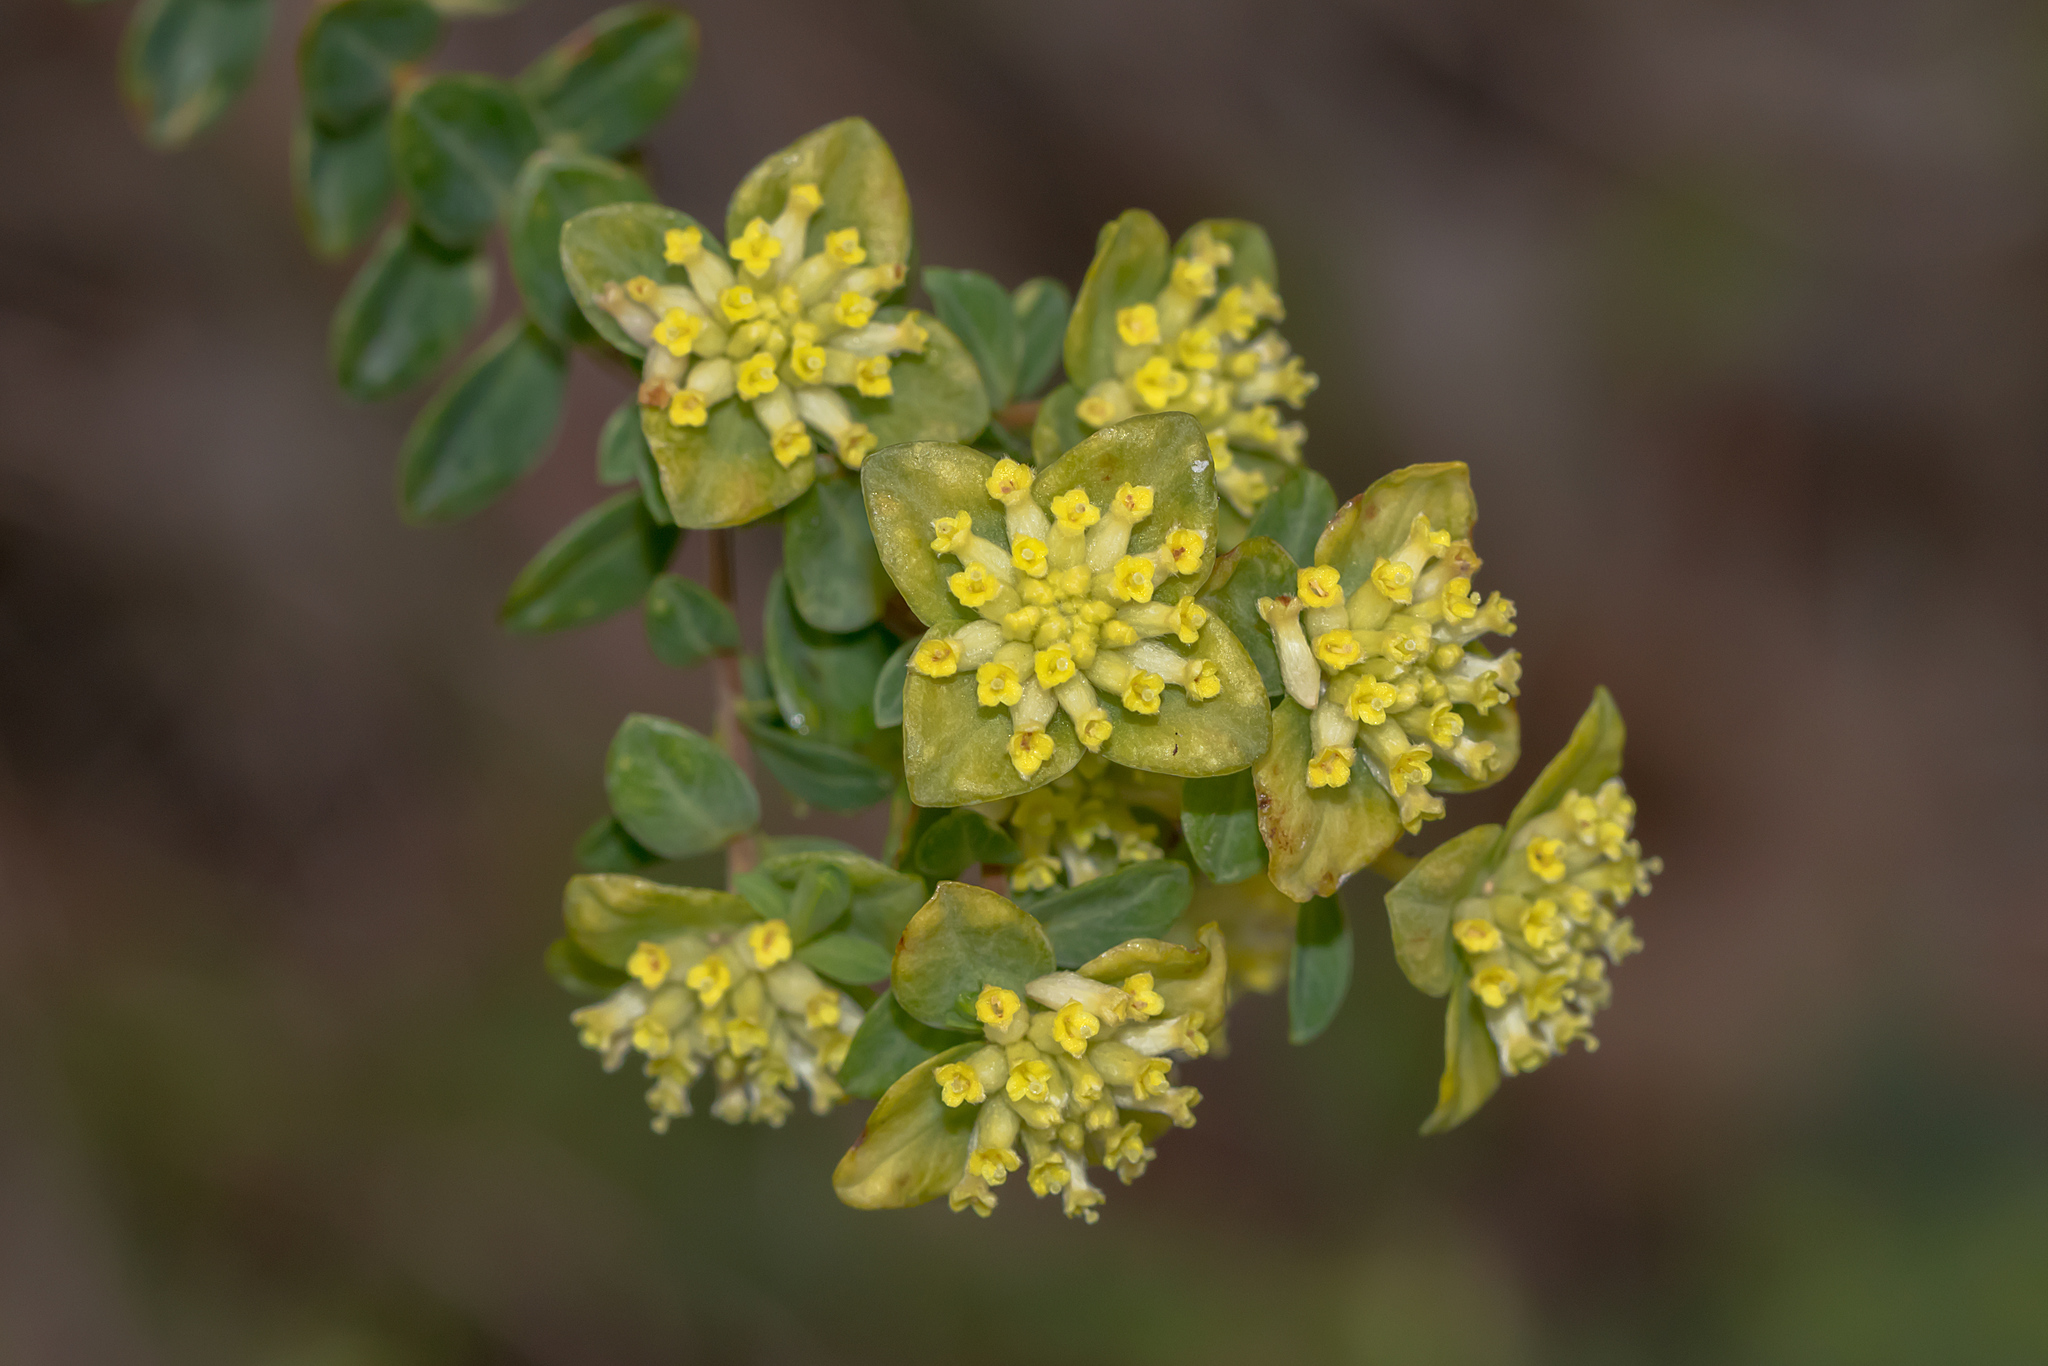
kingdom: Plantae
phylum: Tracheophyta
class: Magnoliopsida
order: Malvales
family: Thymelaeaceae
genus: Pimelea
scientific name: Pimelea flava
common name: Yellow riceflower
